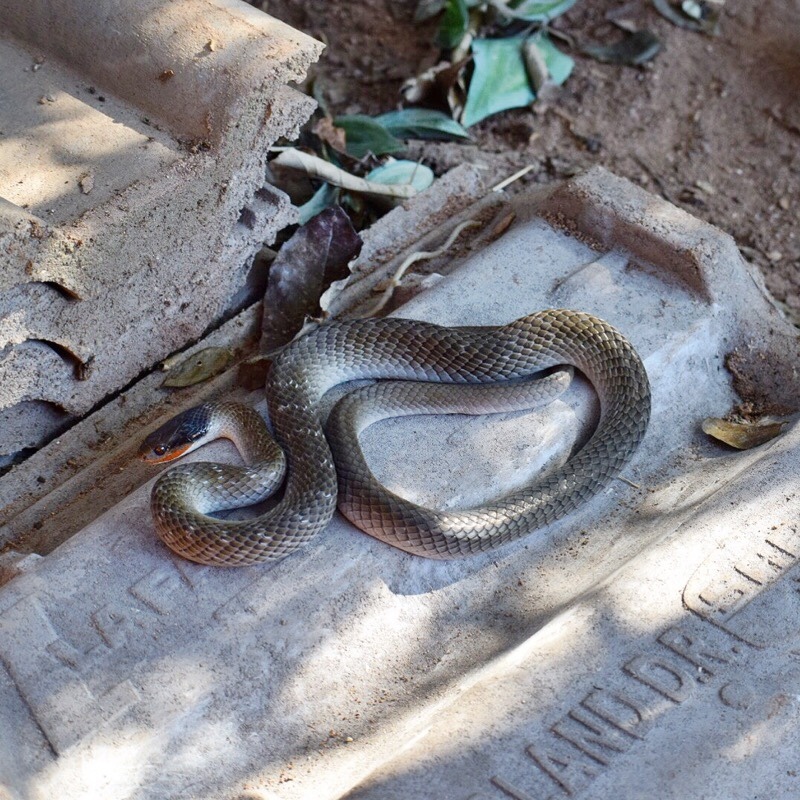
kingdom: Animalia
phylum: Chordata
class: Squamata
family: Colubridae
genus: Crotaphopeltis
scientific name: Crotaphopeltis hotamboeia
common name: Red-lipped snake
